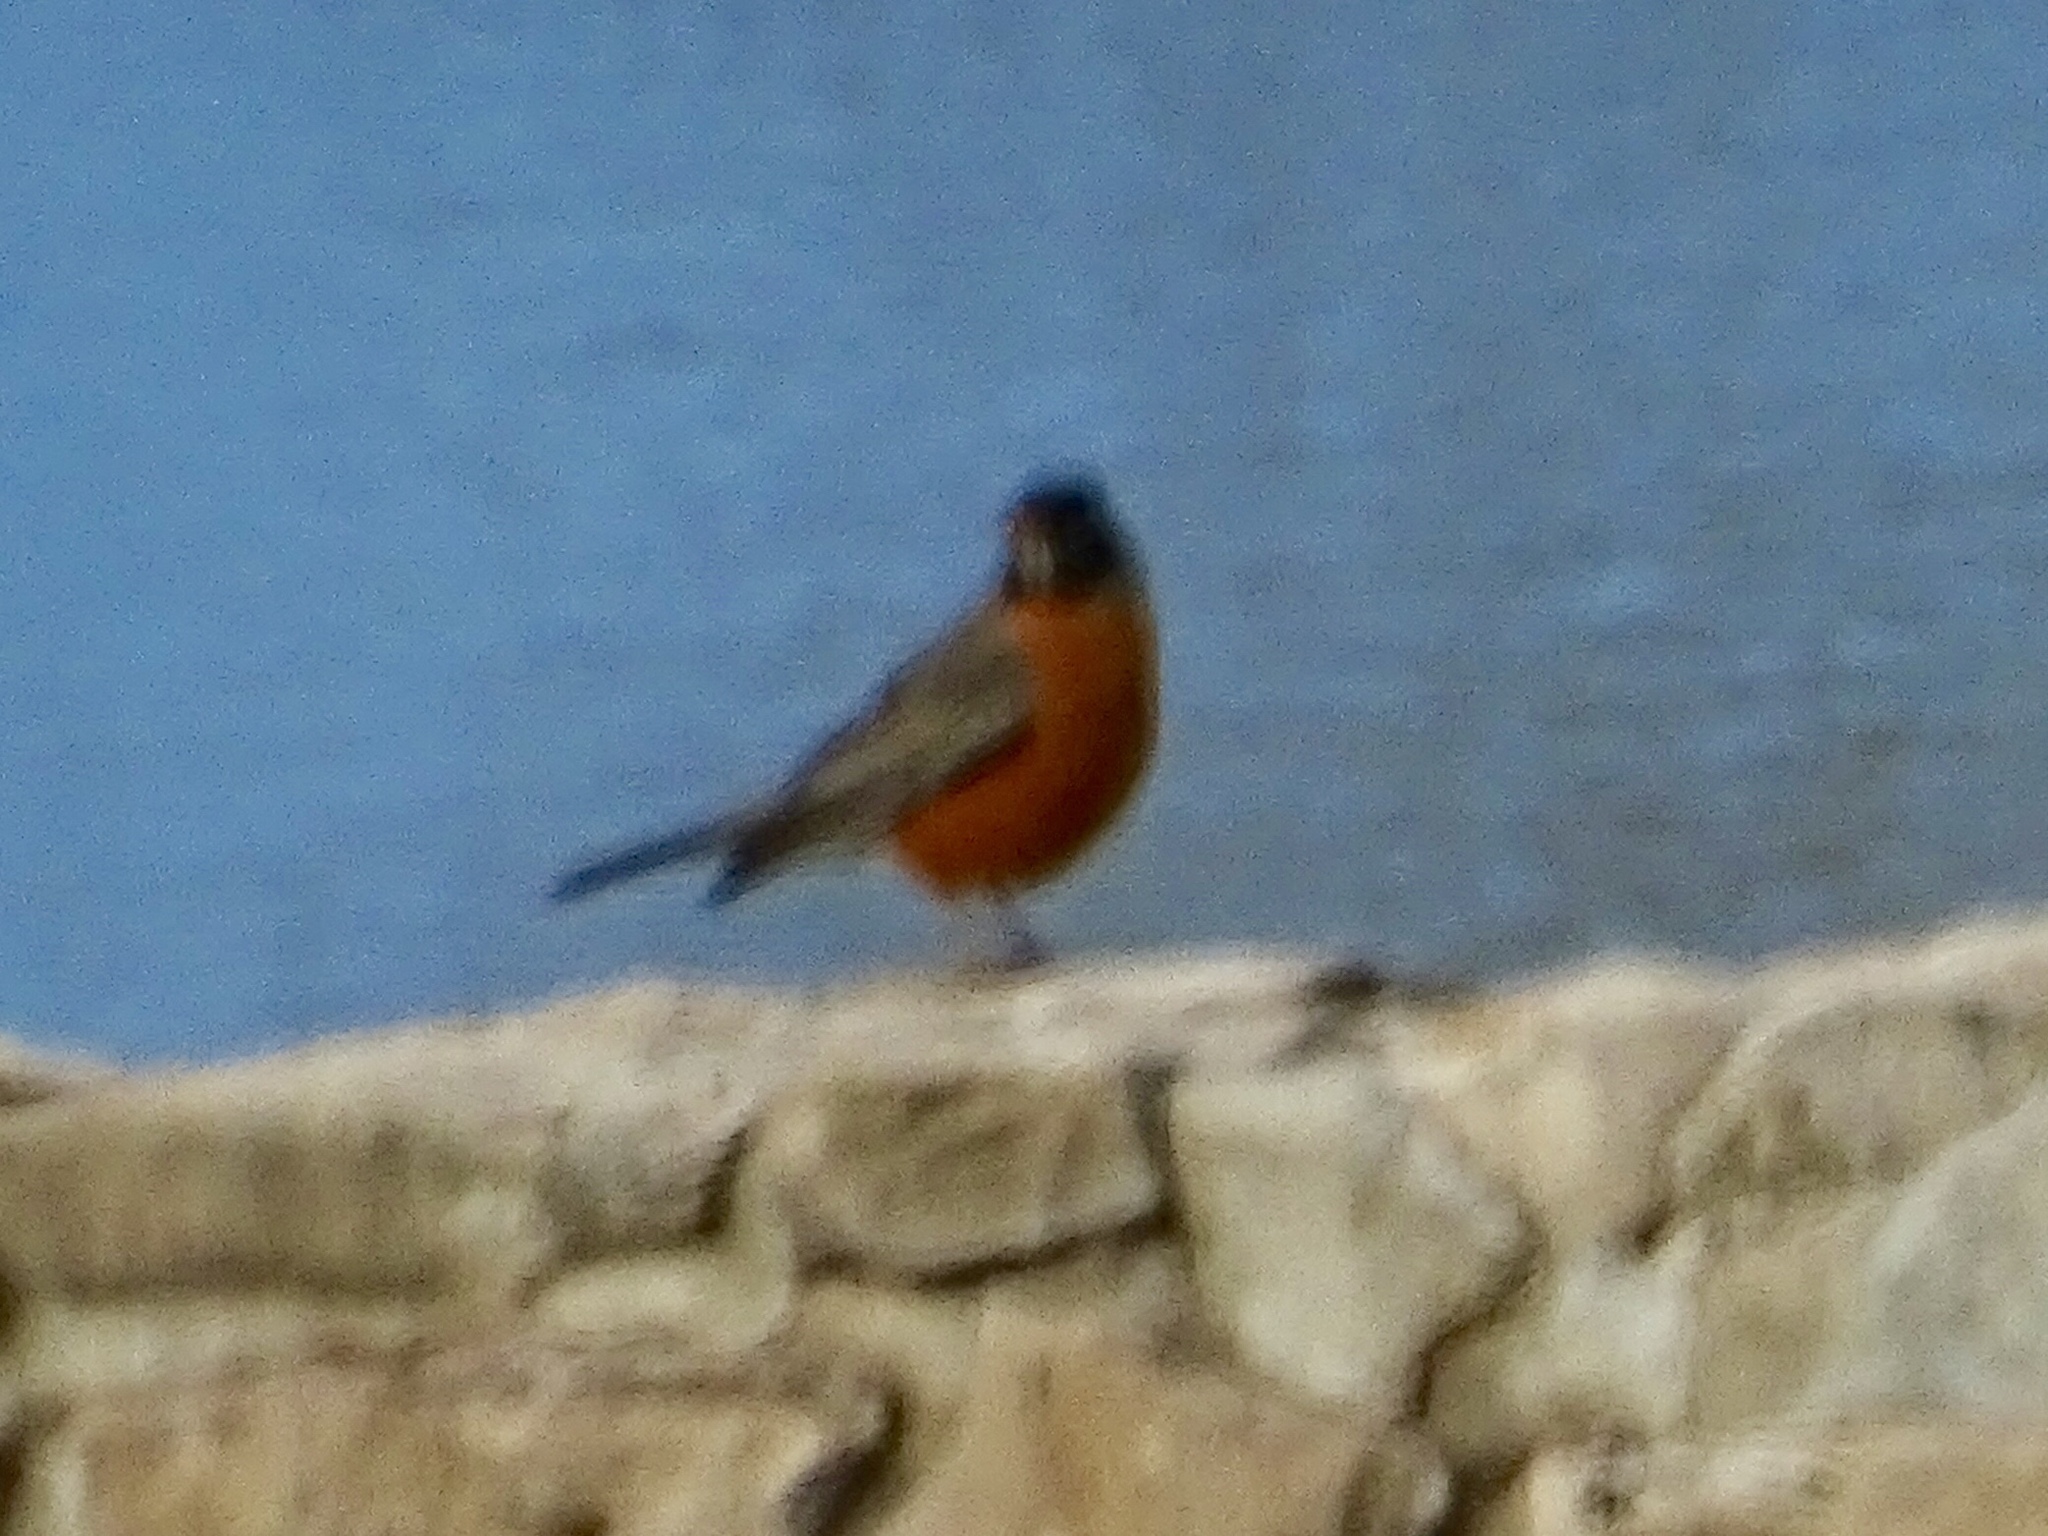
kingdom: Animalia
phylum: Chordata
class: Aves
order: Passeriformes
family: Turdidae
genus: Turdus
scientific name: Turdus migratorius
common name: American robin
